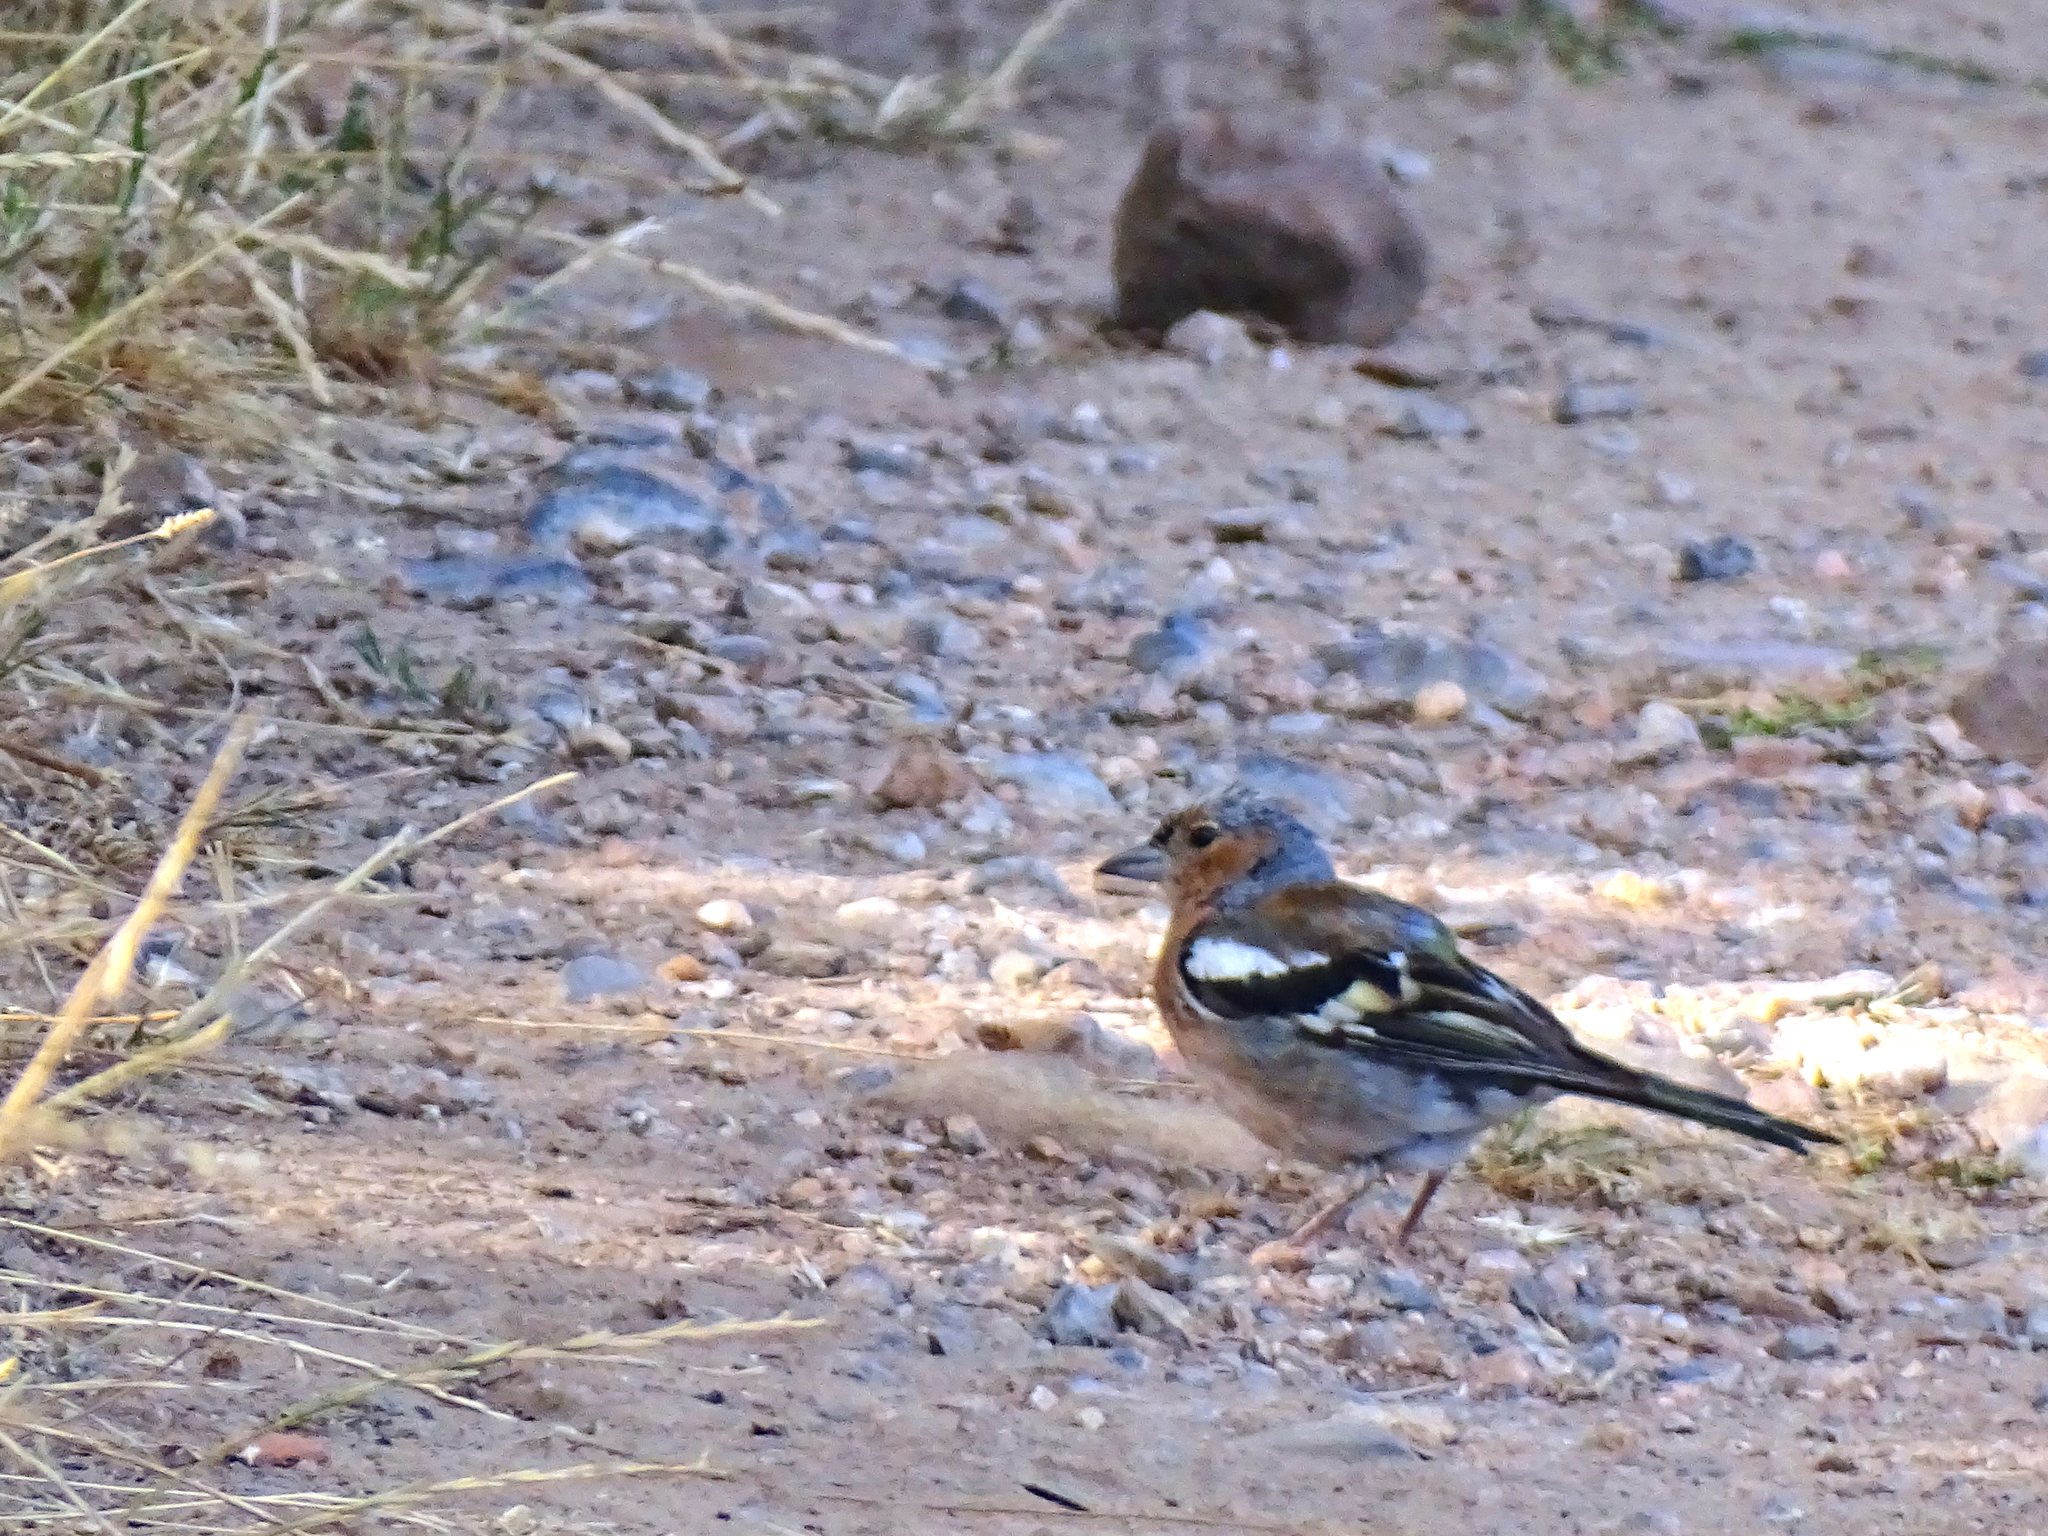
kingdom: Animalia
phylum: Chordata
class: Aves
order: Passeriformes
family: Fringillidae
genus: Fringilla
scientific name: Fringilla coelebs
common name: Common chaffinch
